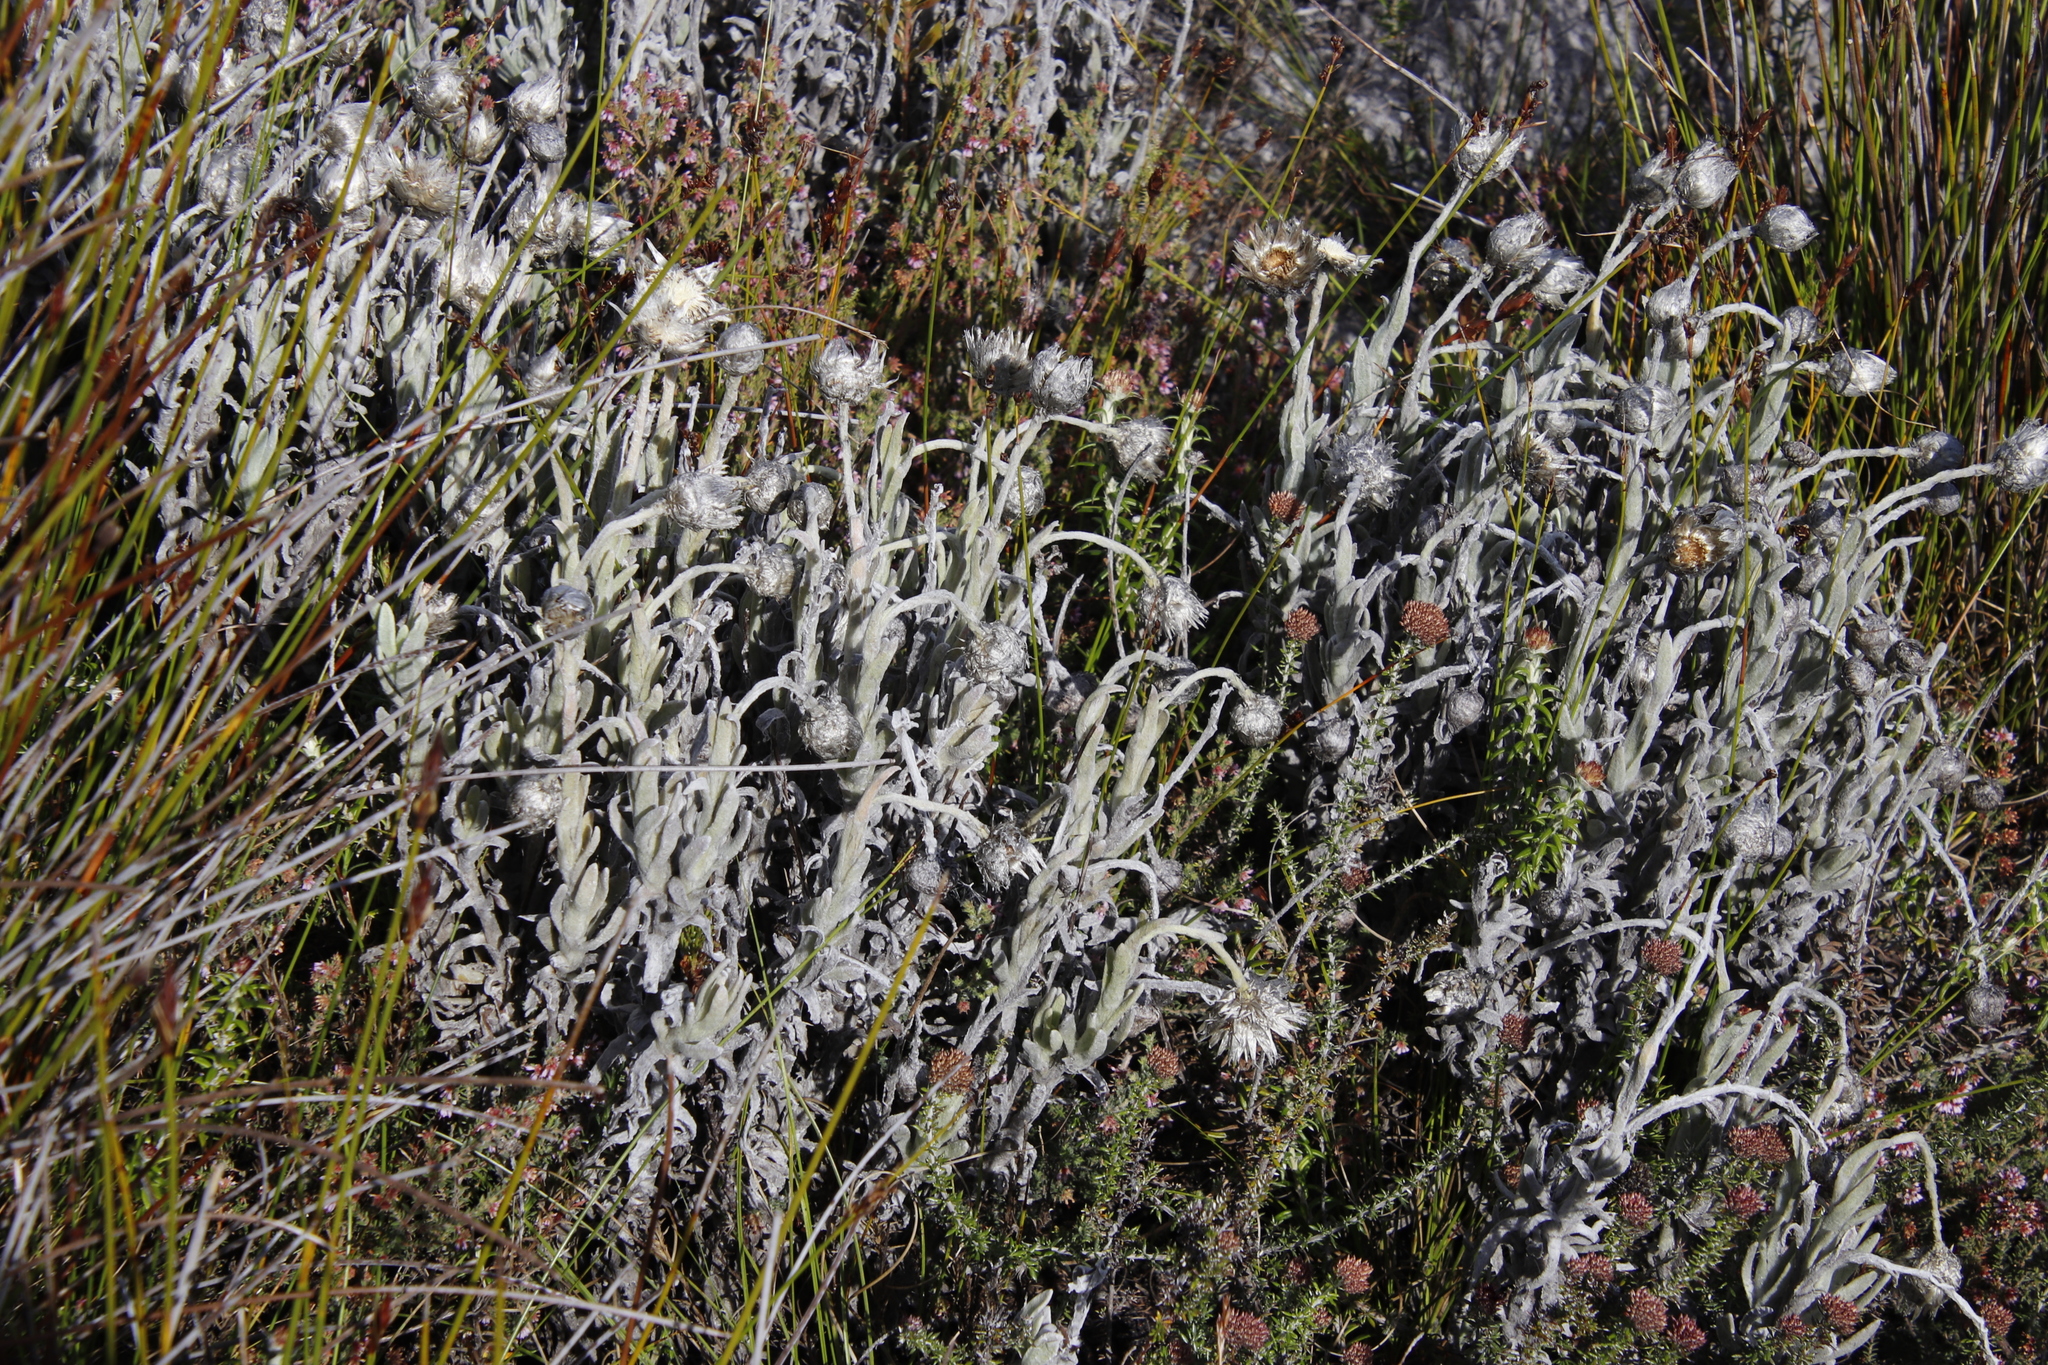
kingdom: Plantae
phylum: Tracheophyta
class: Magnoliopsida
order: Asterales
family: Asteraceae
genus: Syncarpha
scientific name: Syncarpha vestita
